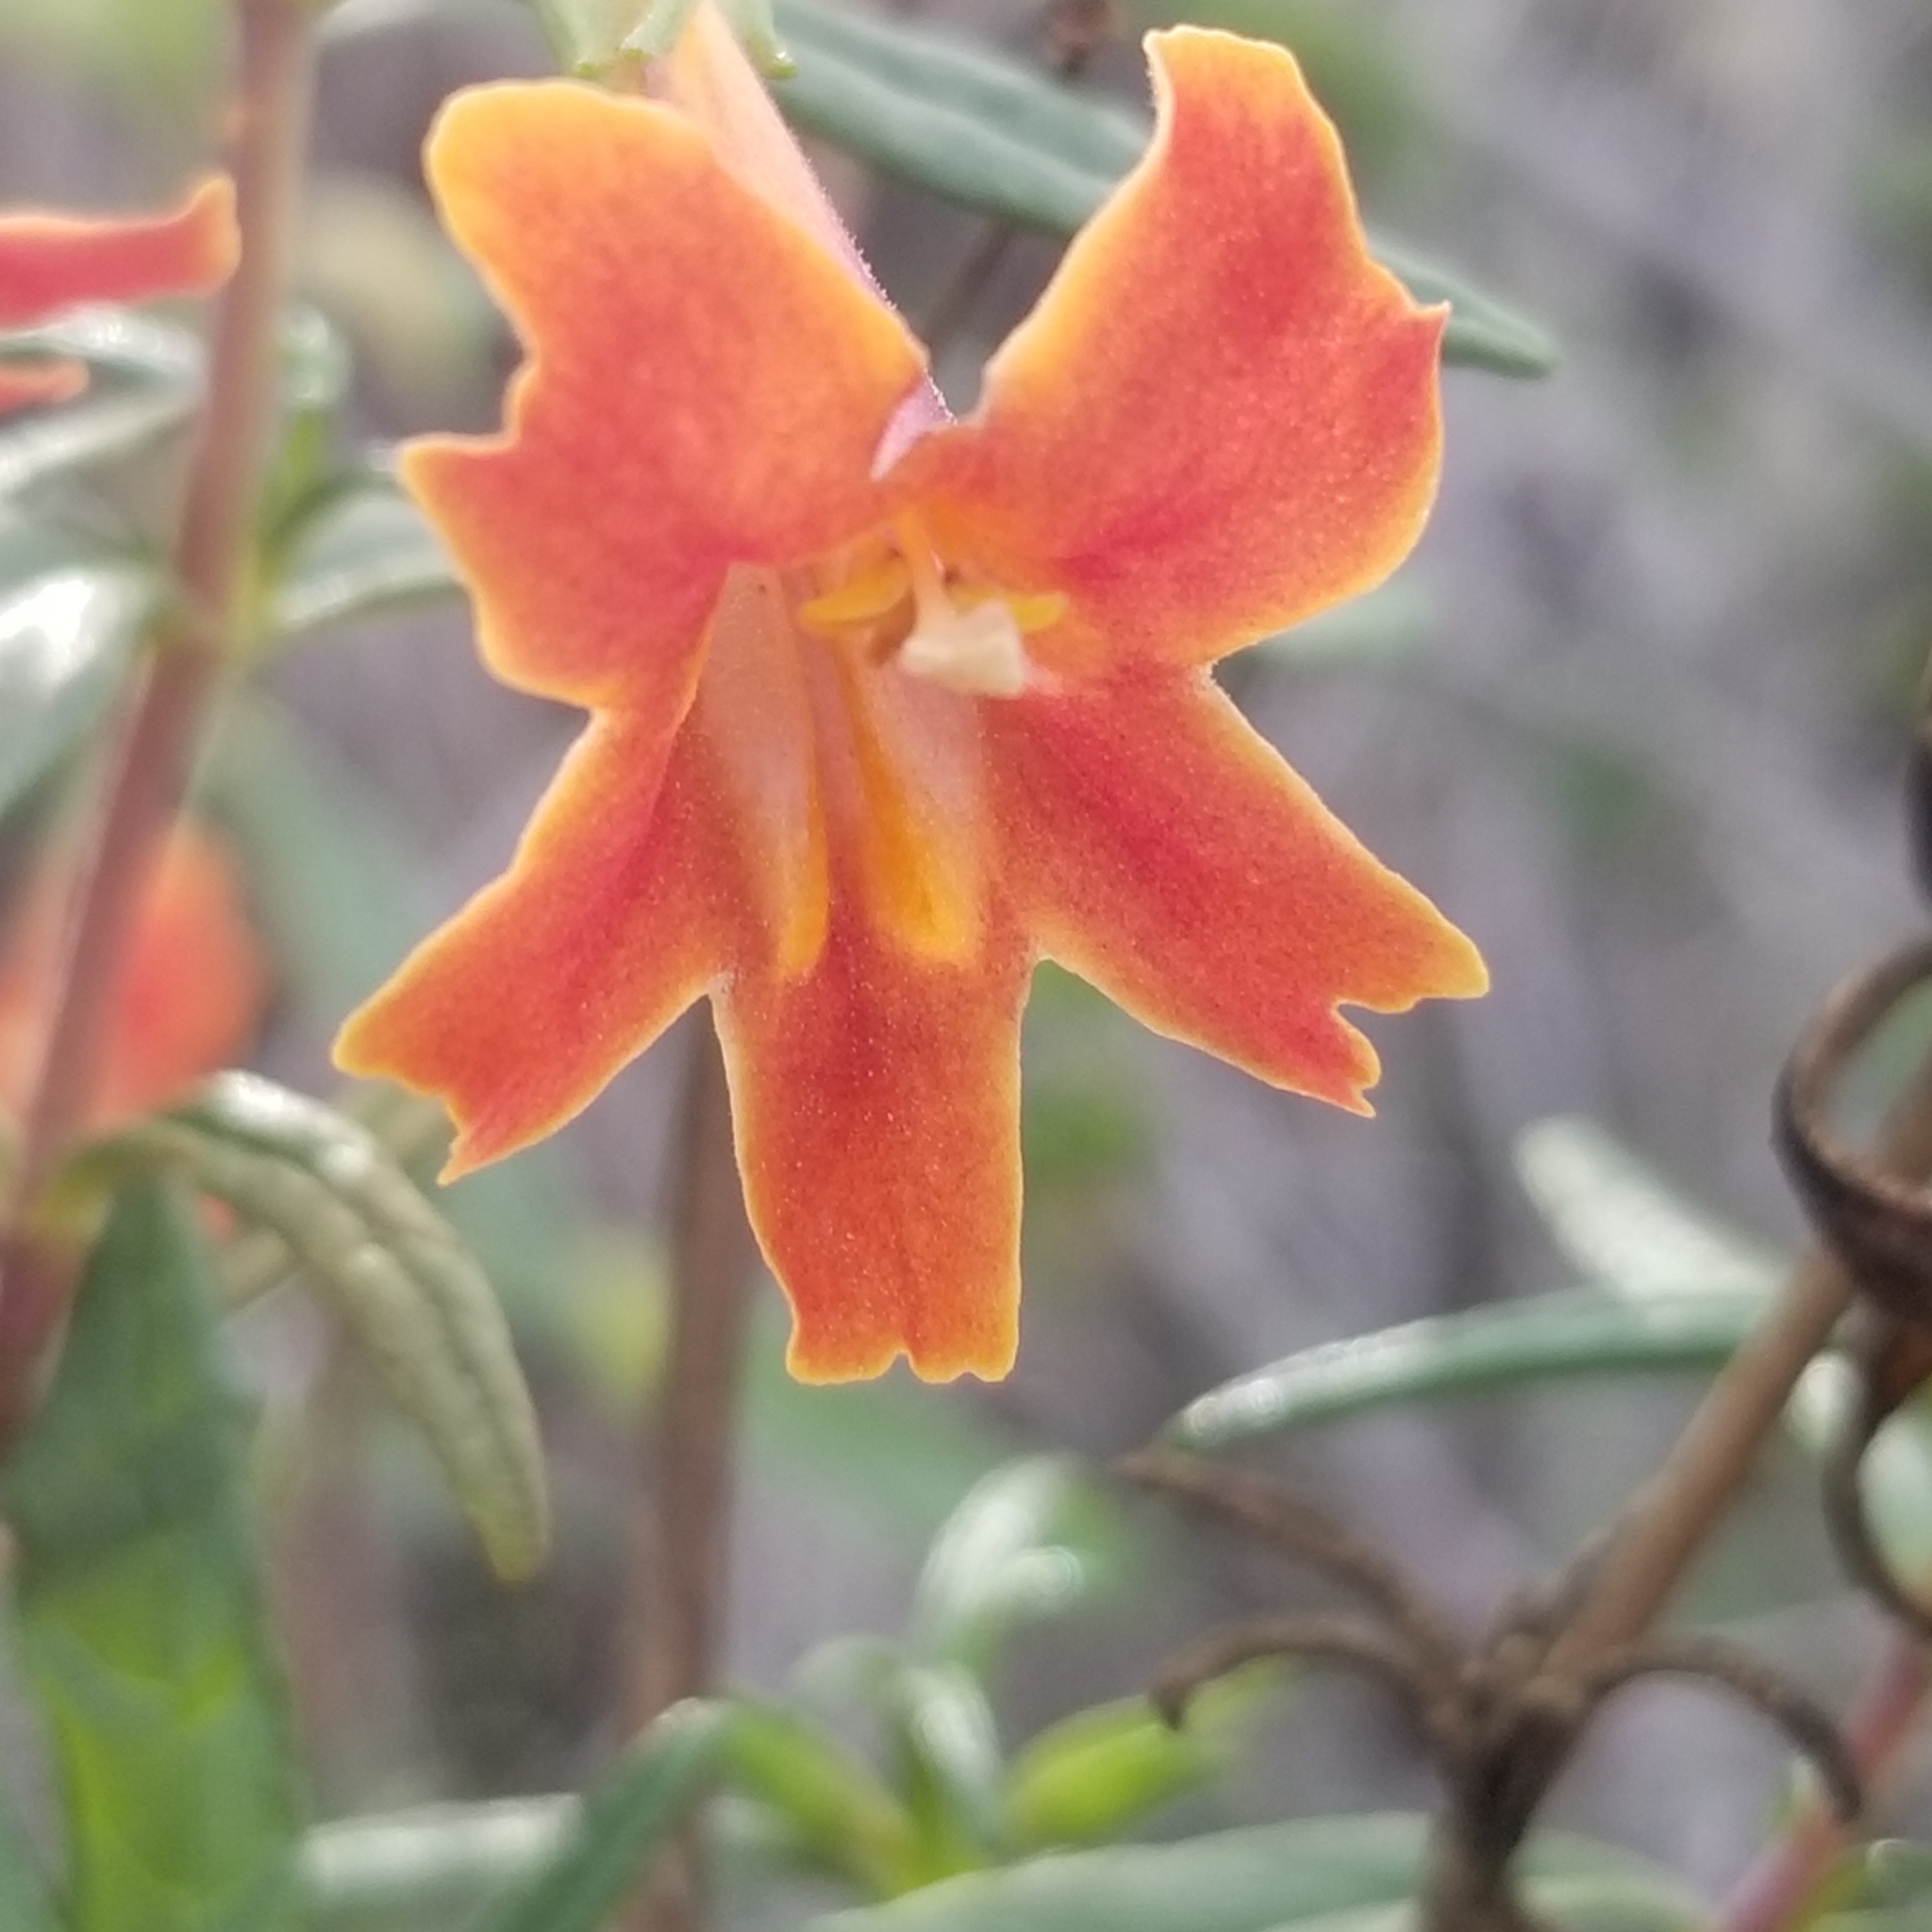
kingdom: Plantae
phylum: Tracheophyta
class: Magnoliopsida
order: Lamiales
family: Phrymaceae
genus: Diplacus
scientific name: Diplacus australis
